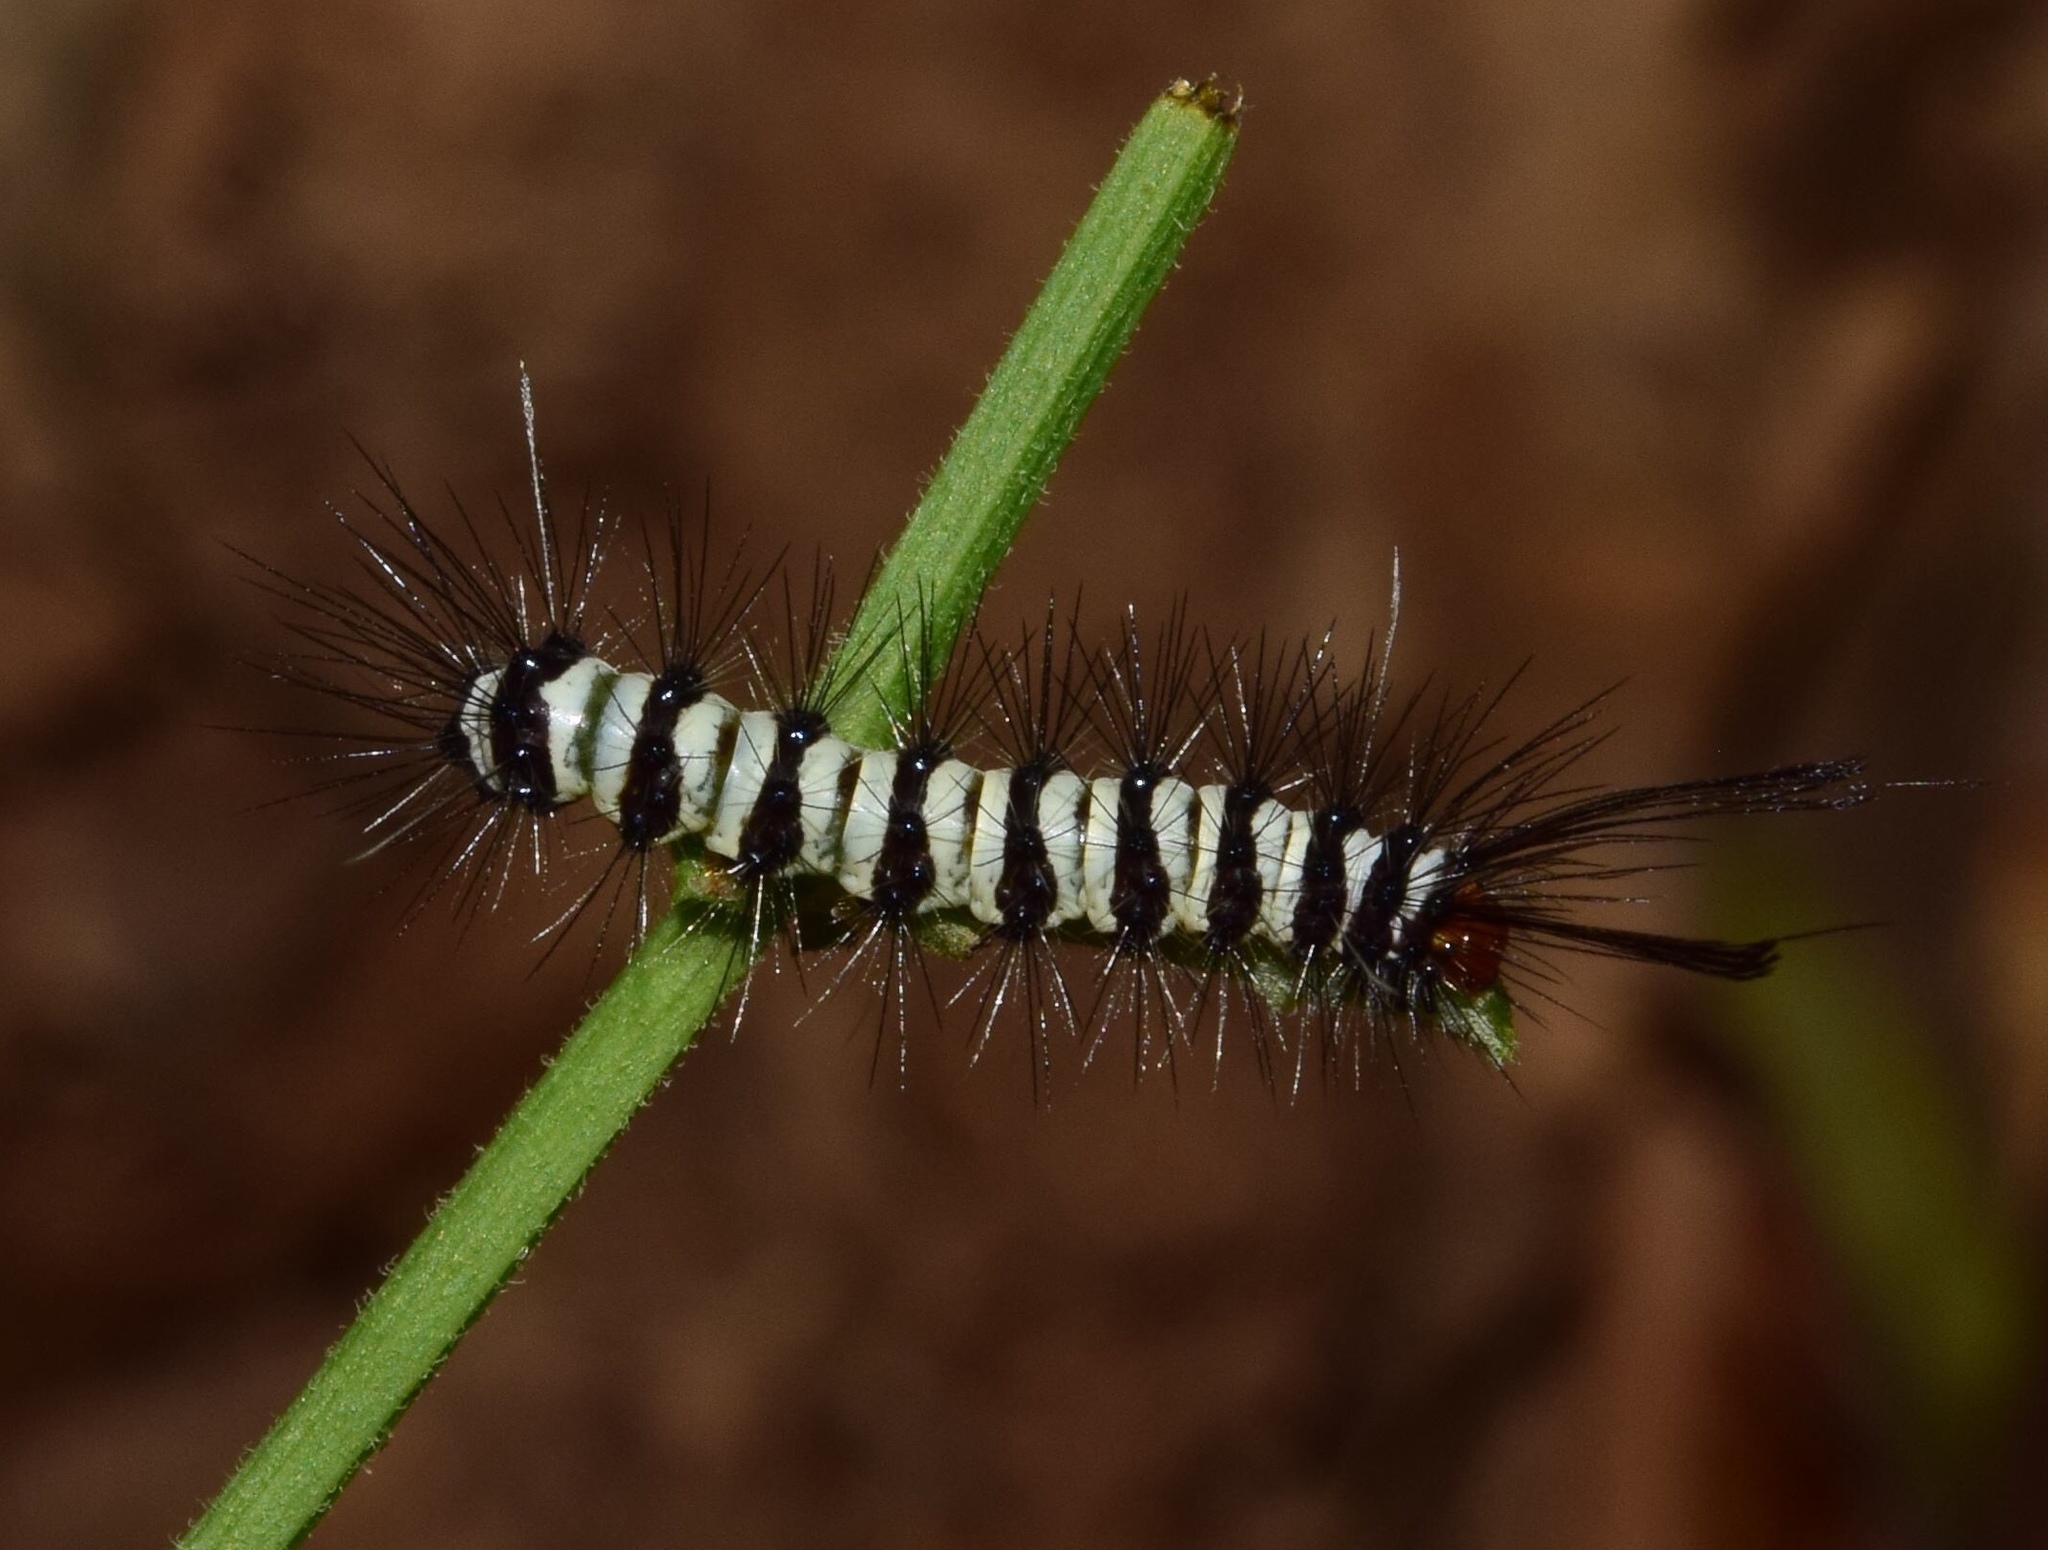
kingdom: Animalia
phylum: Arthropoda
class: Insecta
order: Lepidoptera
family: Erebidae
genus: Nyctemera
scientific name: Nyctemera
